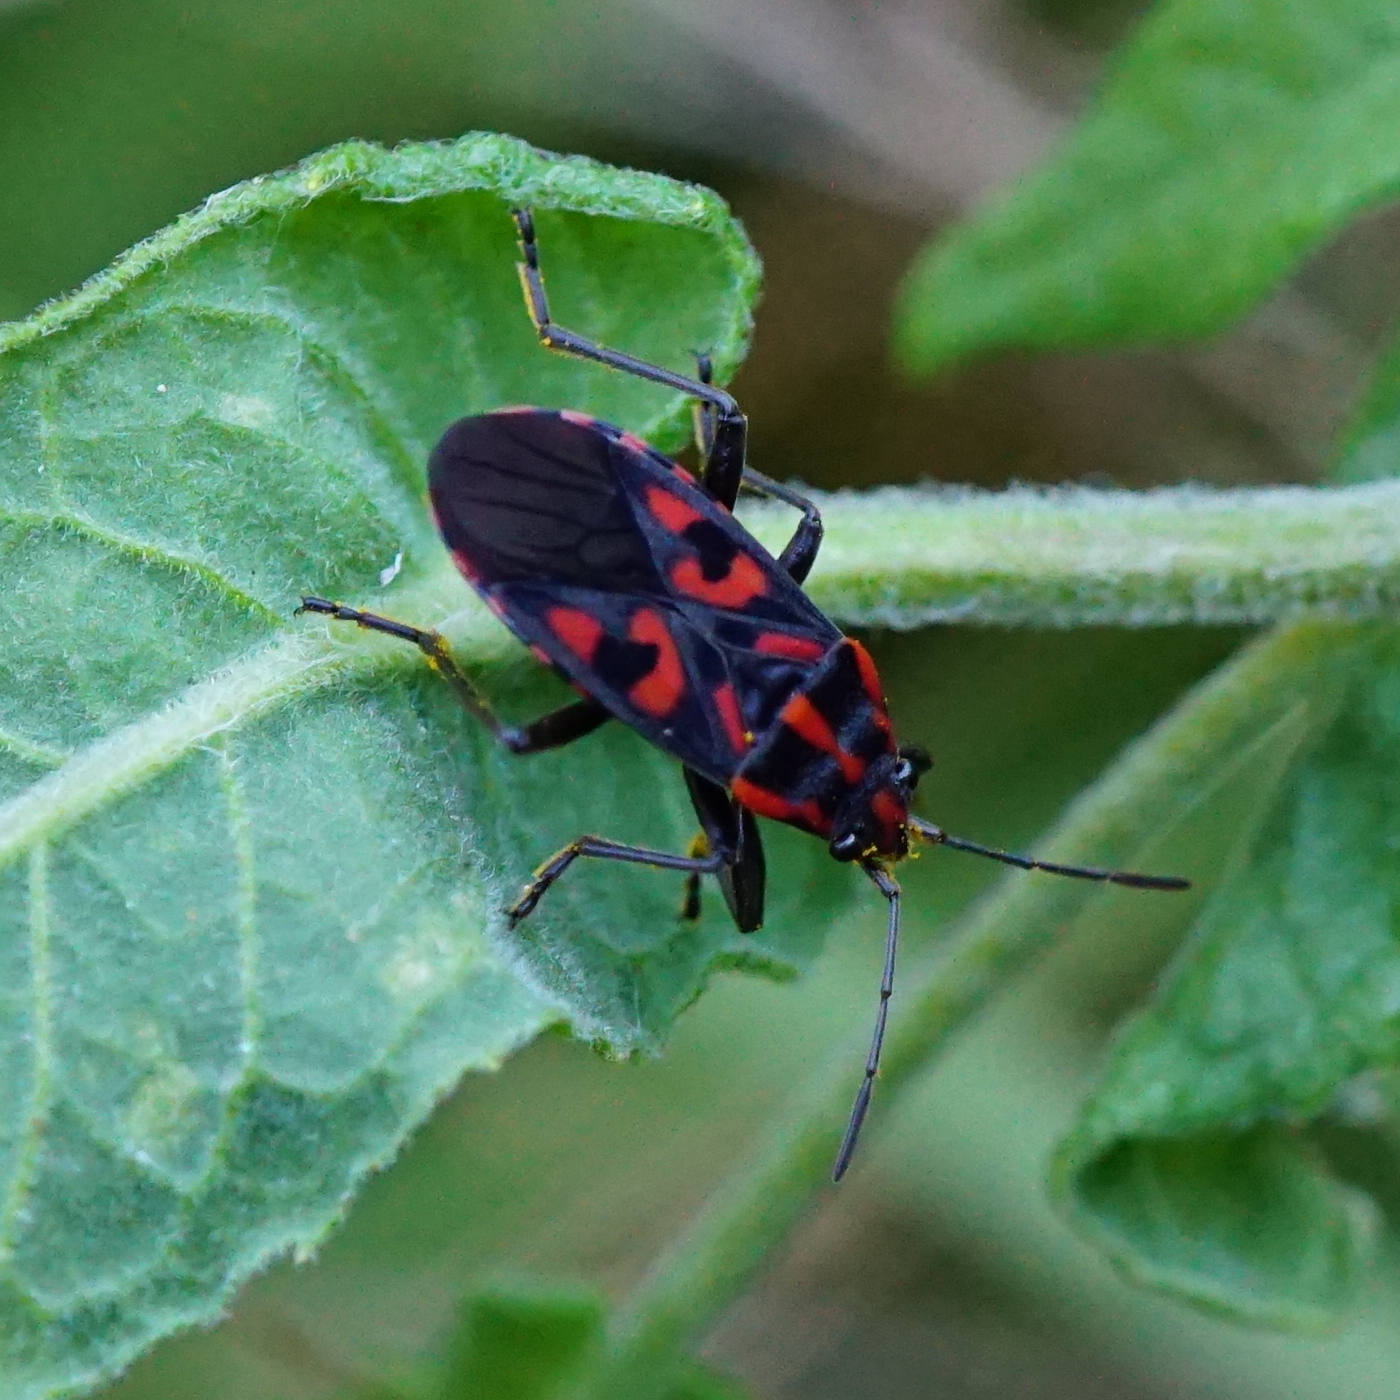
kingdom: Animalia
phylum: Arthropoda
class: Insecta
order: Hemiptera
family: Lygaeidae
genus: Spilostethus
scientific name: Spilostethus saxatilis
